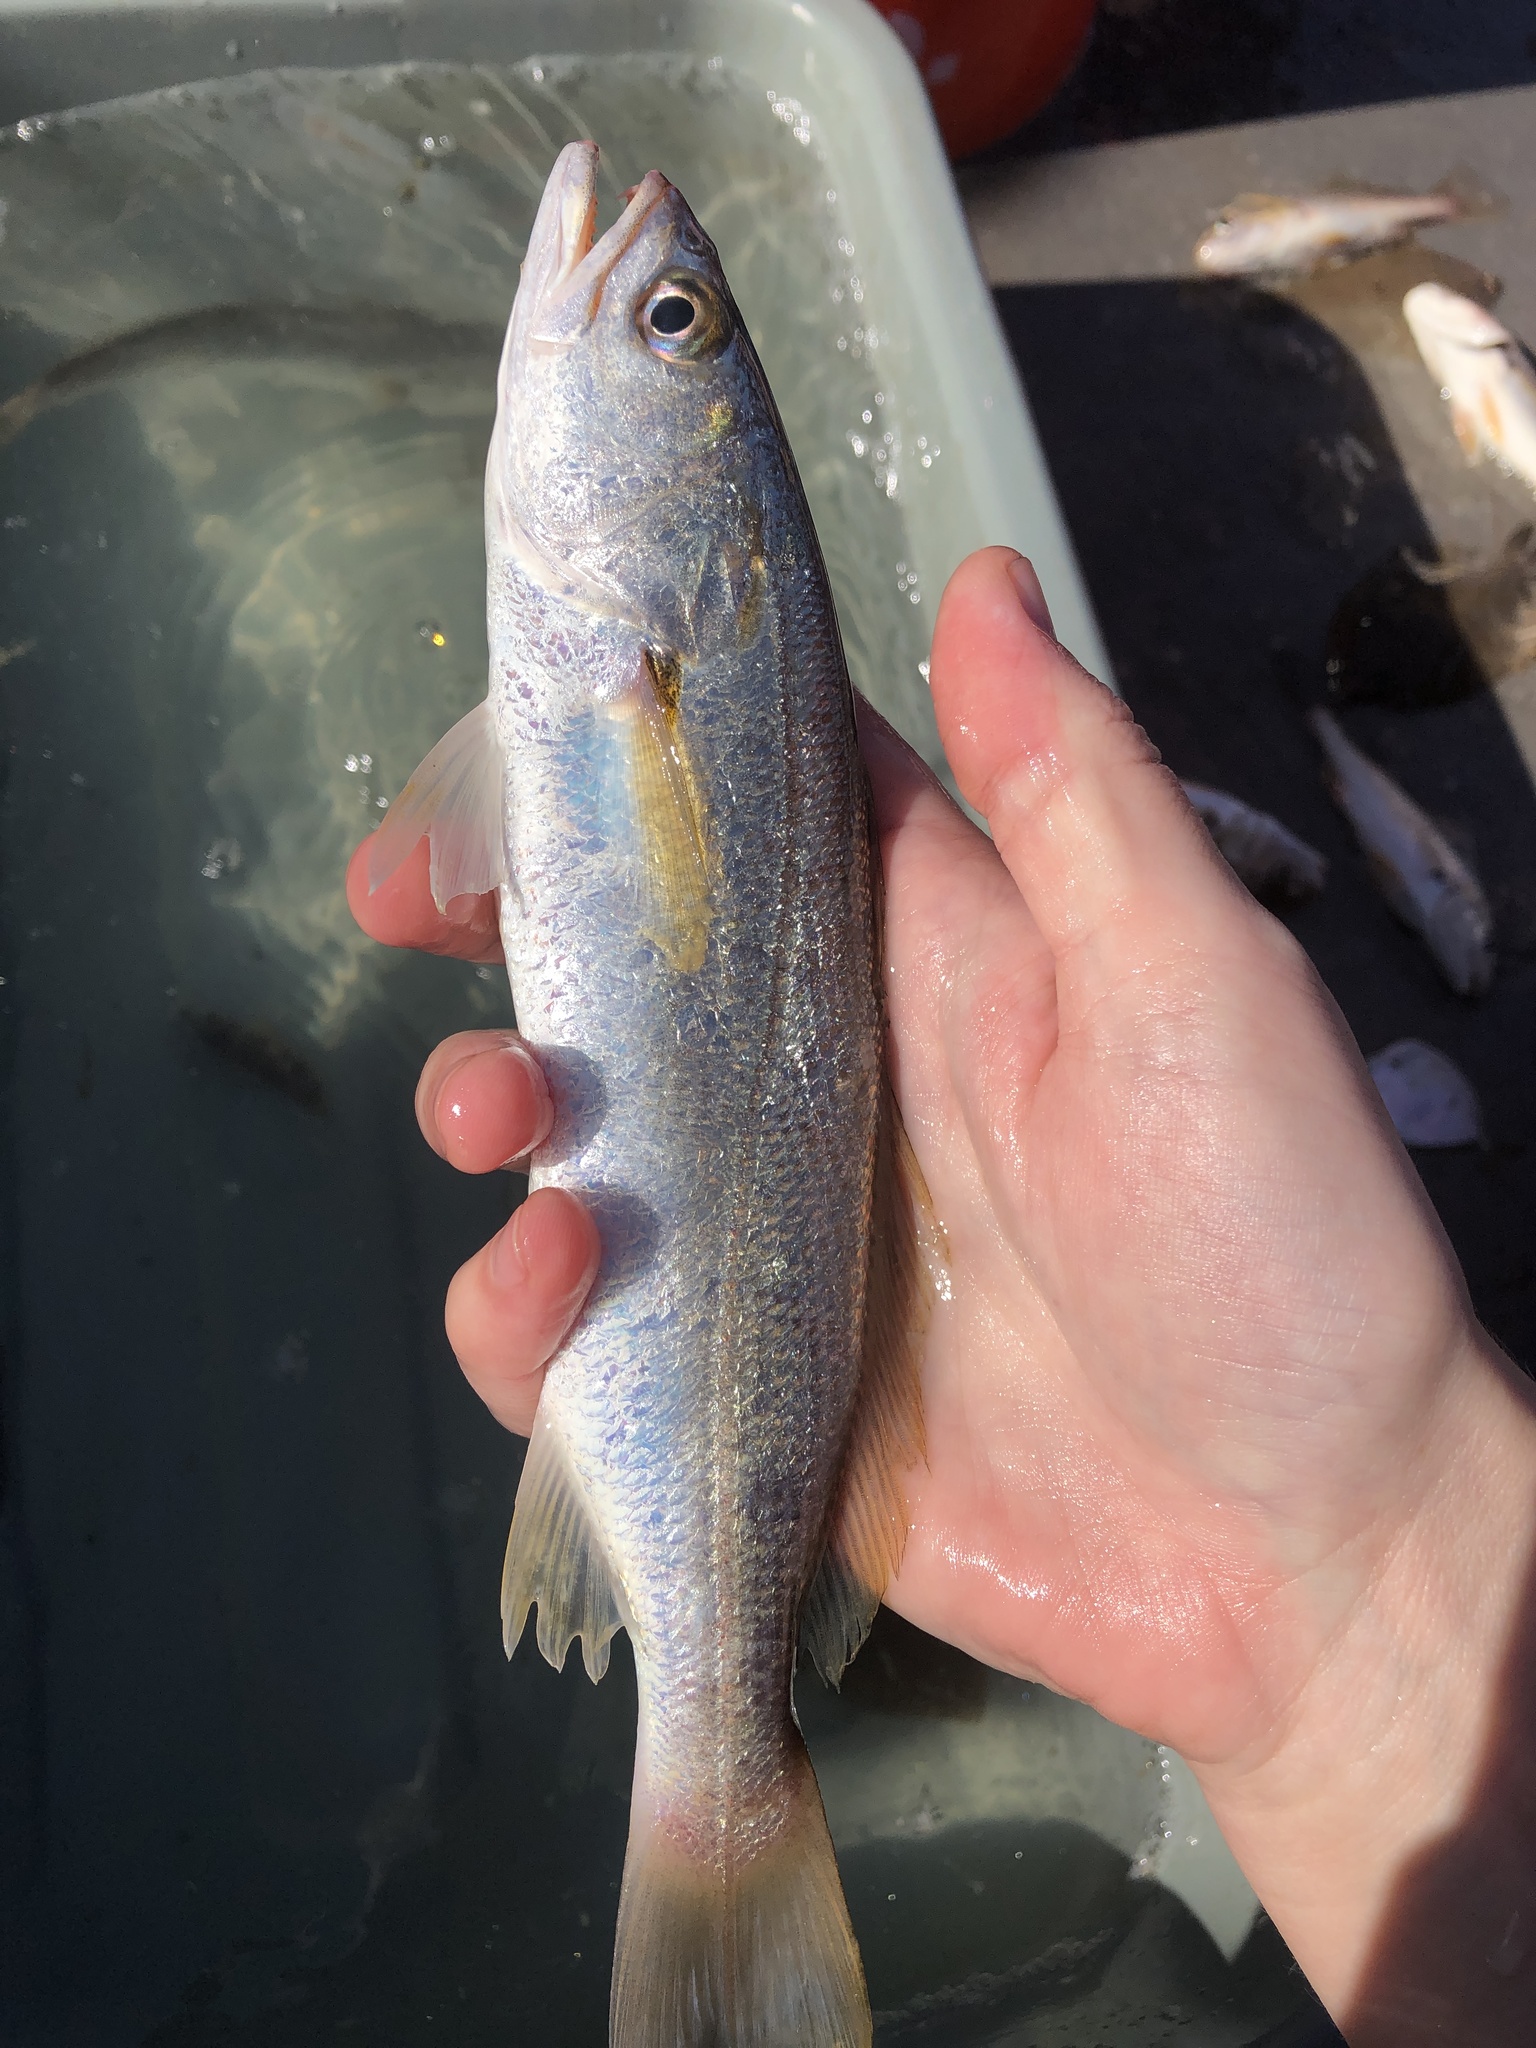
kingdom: Animalia
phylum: Chordata
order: Perciformes
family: Sciaenidae
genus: Cynoscion
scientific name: Cynoscion arenarius
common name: Sand seatrout
